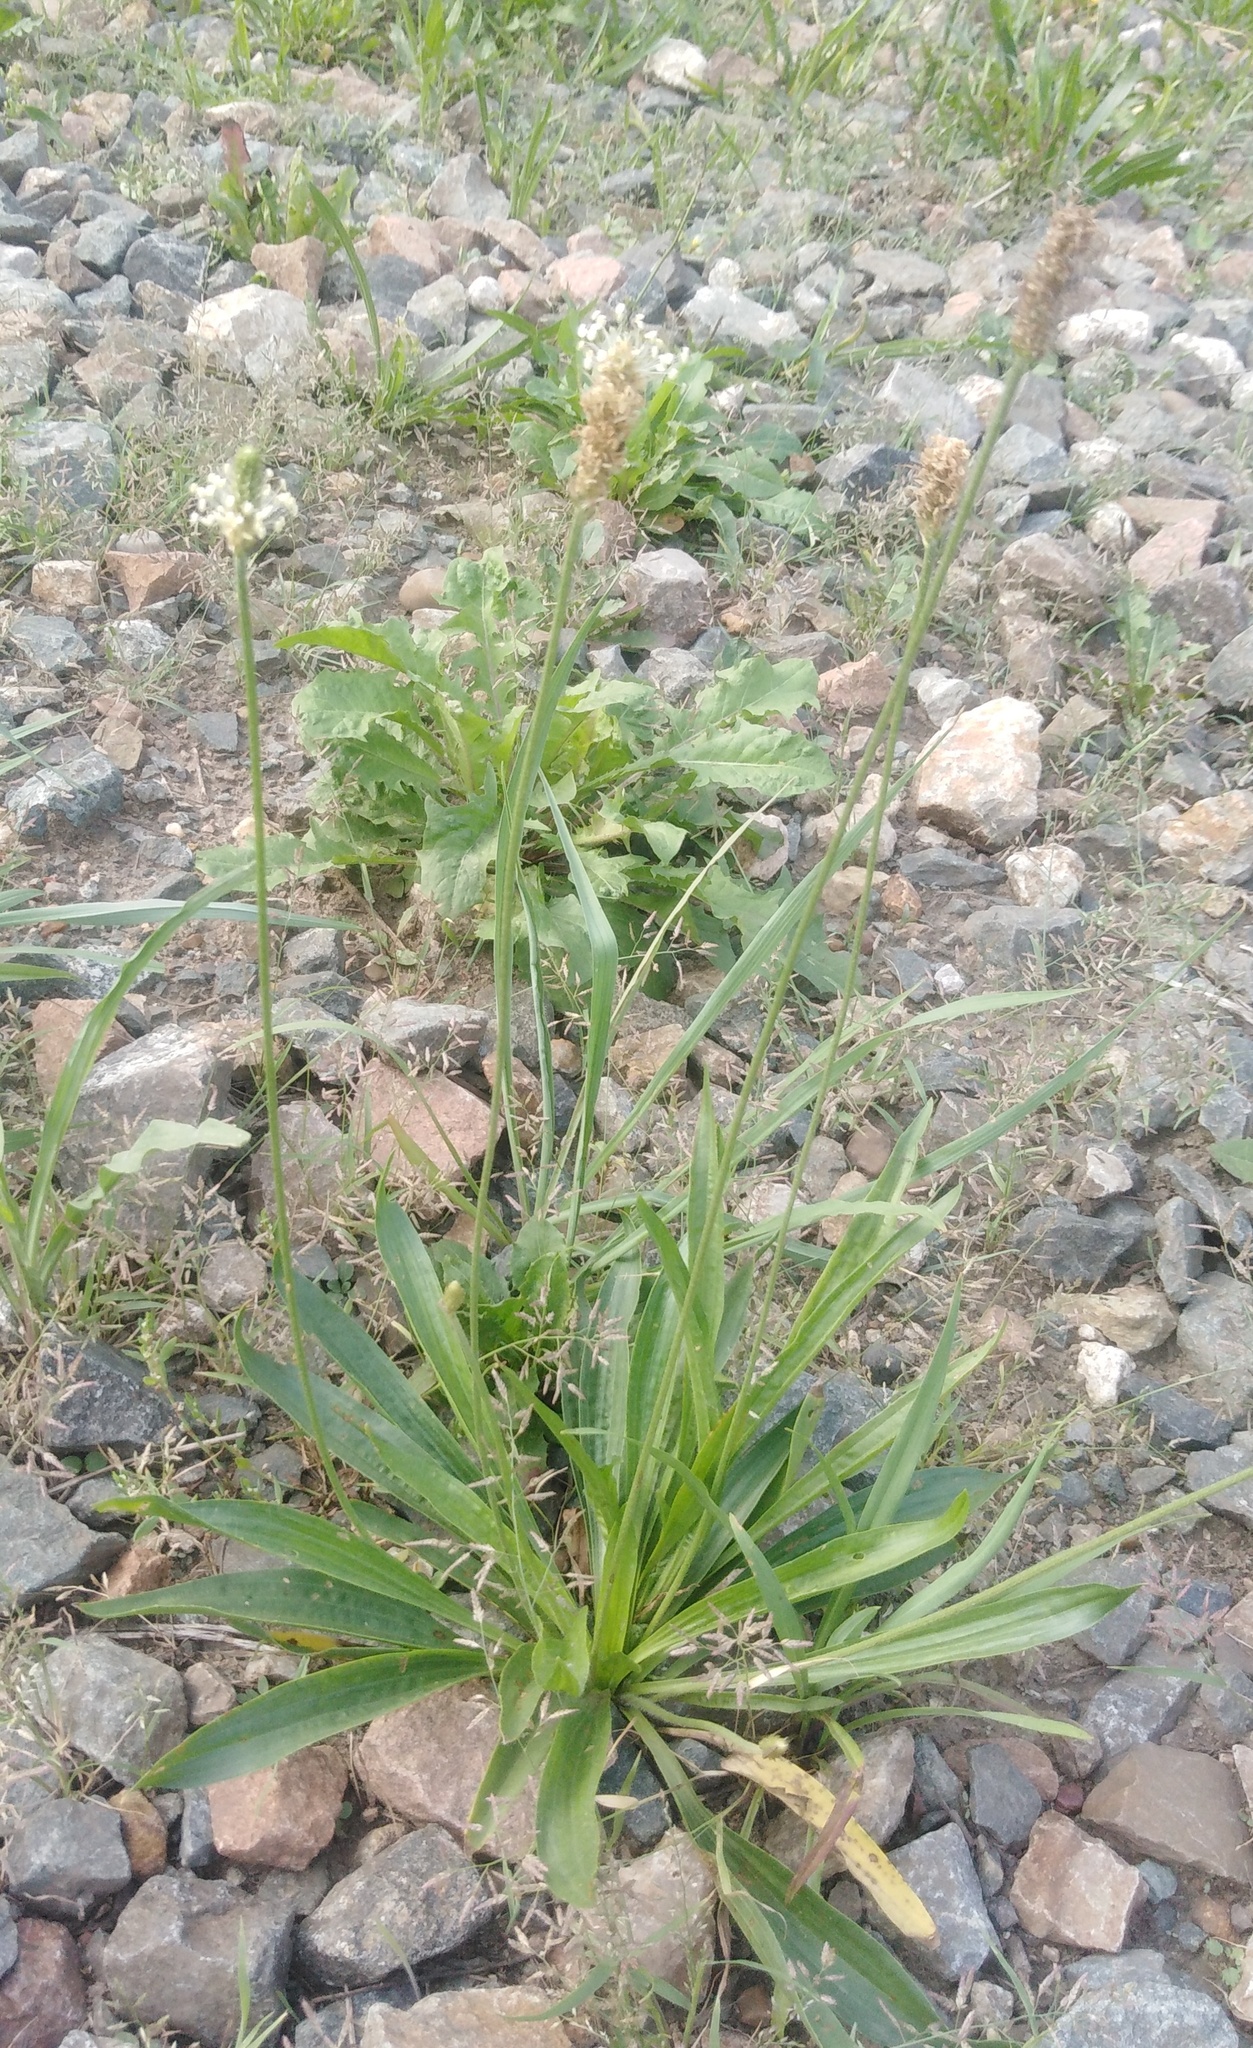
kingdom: Plantae
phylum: Tracheophyta
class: Magnoliopsida
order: Lamiales
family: Plantaginaceae
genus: Plantago
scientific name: Plantago lanceolata
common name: Ribwort plantain
